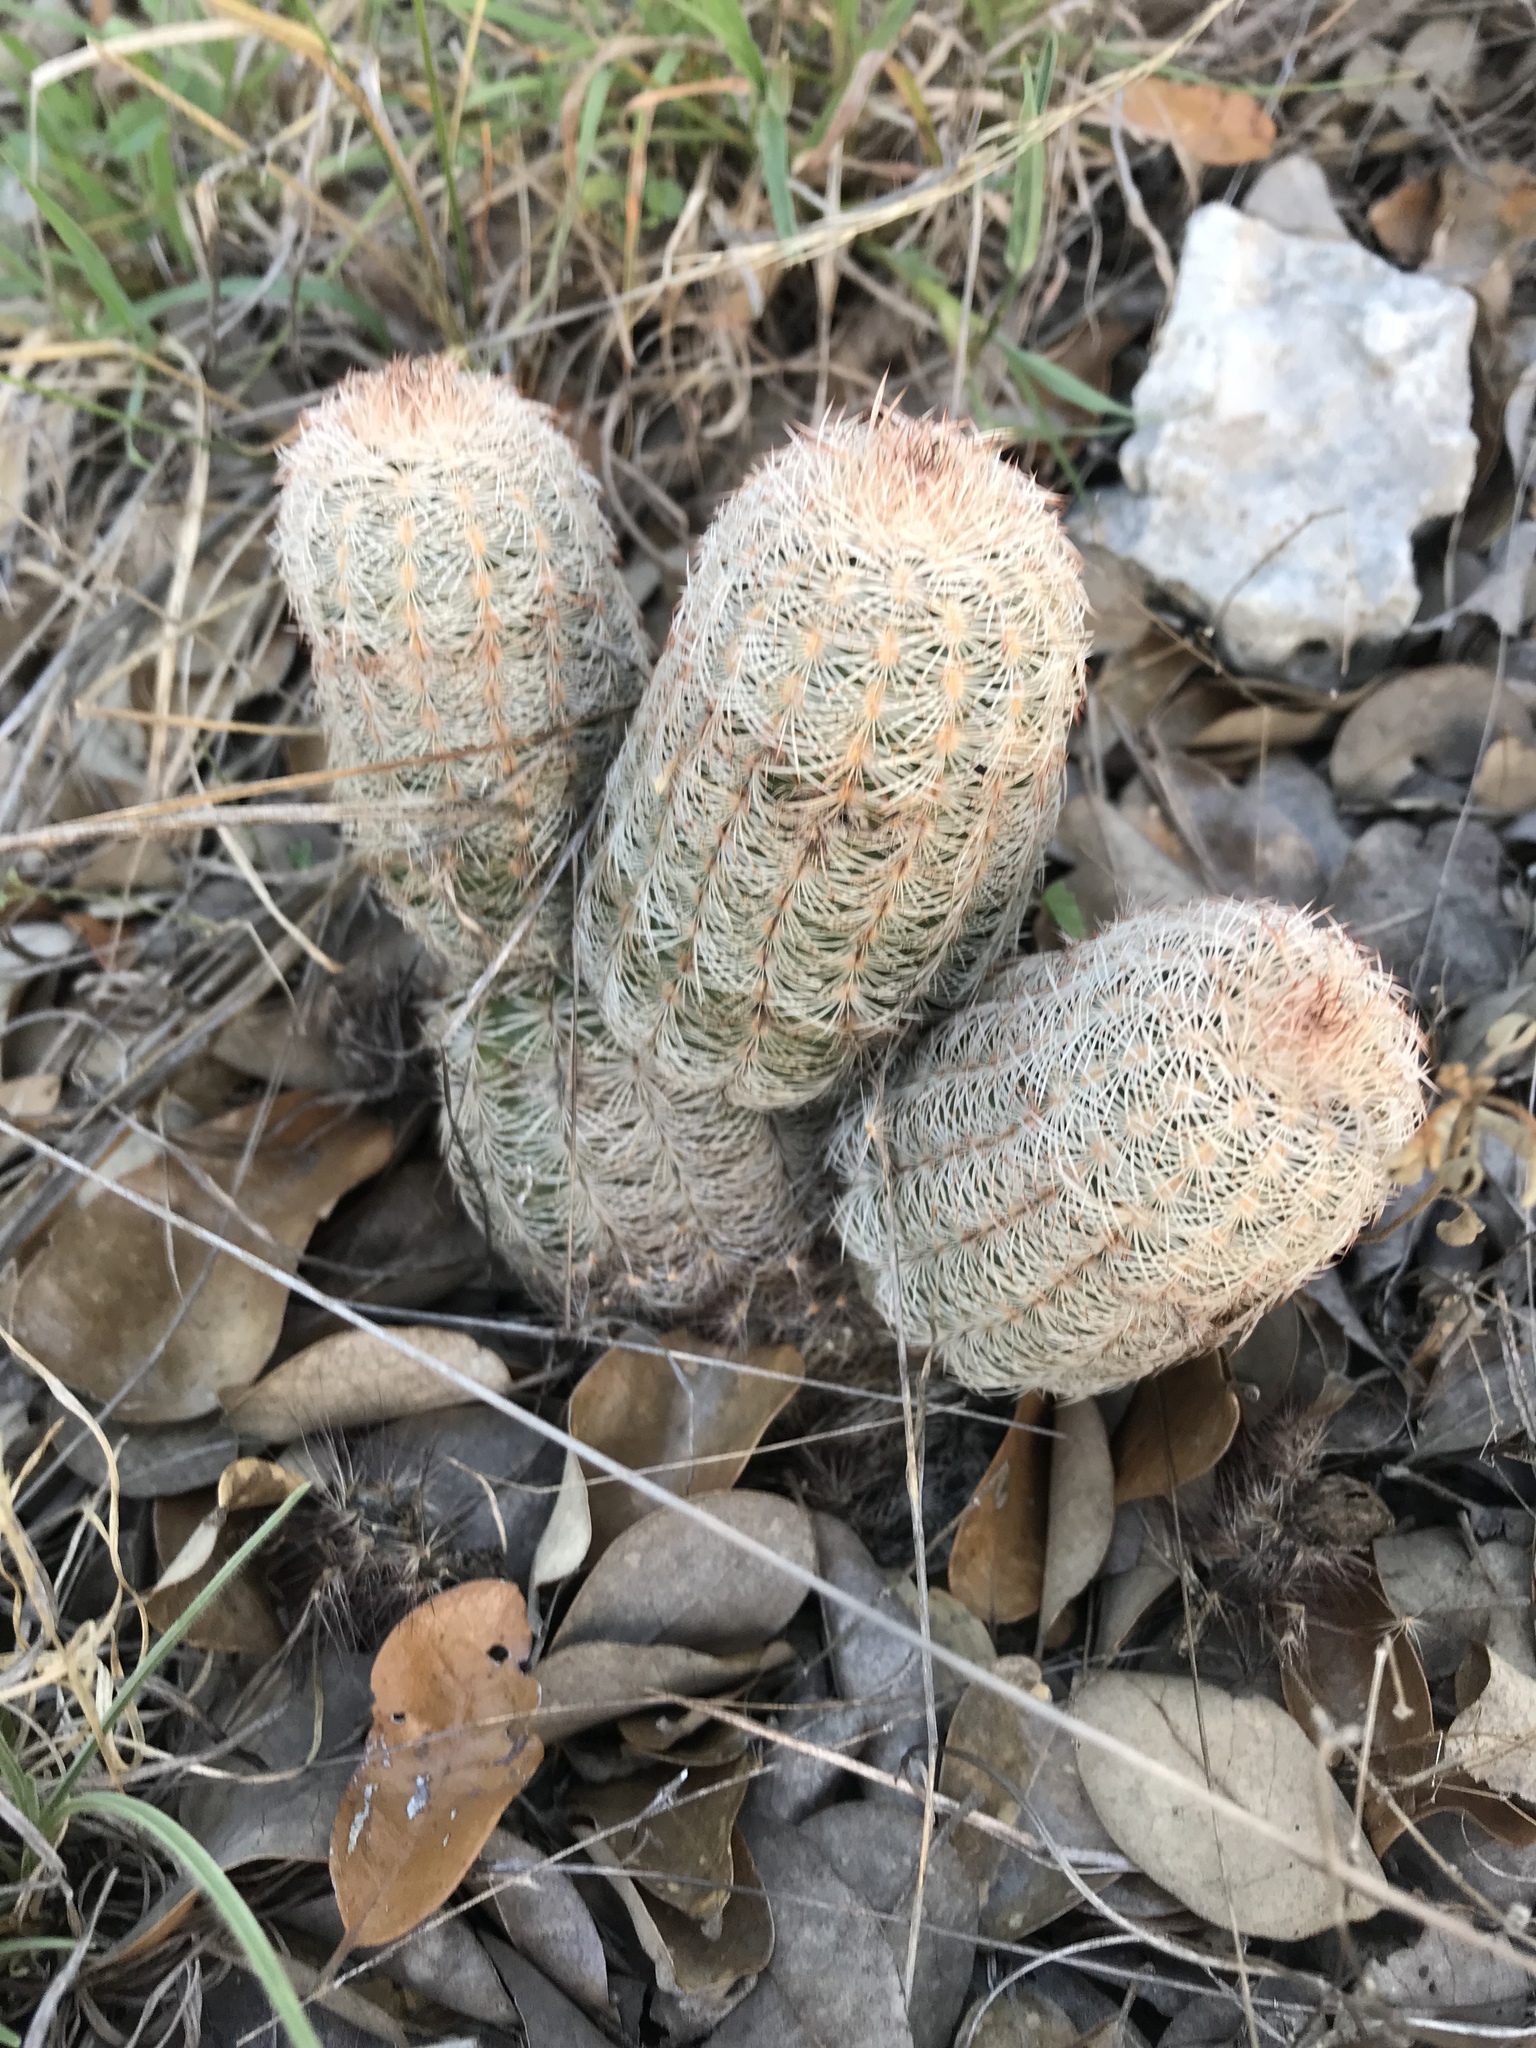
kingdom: Plantae
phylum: Tracheophyta
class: Magnoliopsida
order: Caryophyllales
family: Cactaceae
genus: Echinocereus
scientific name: Echinocereus reichenbachii
